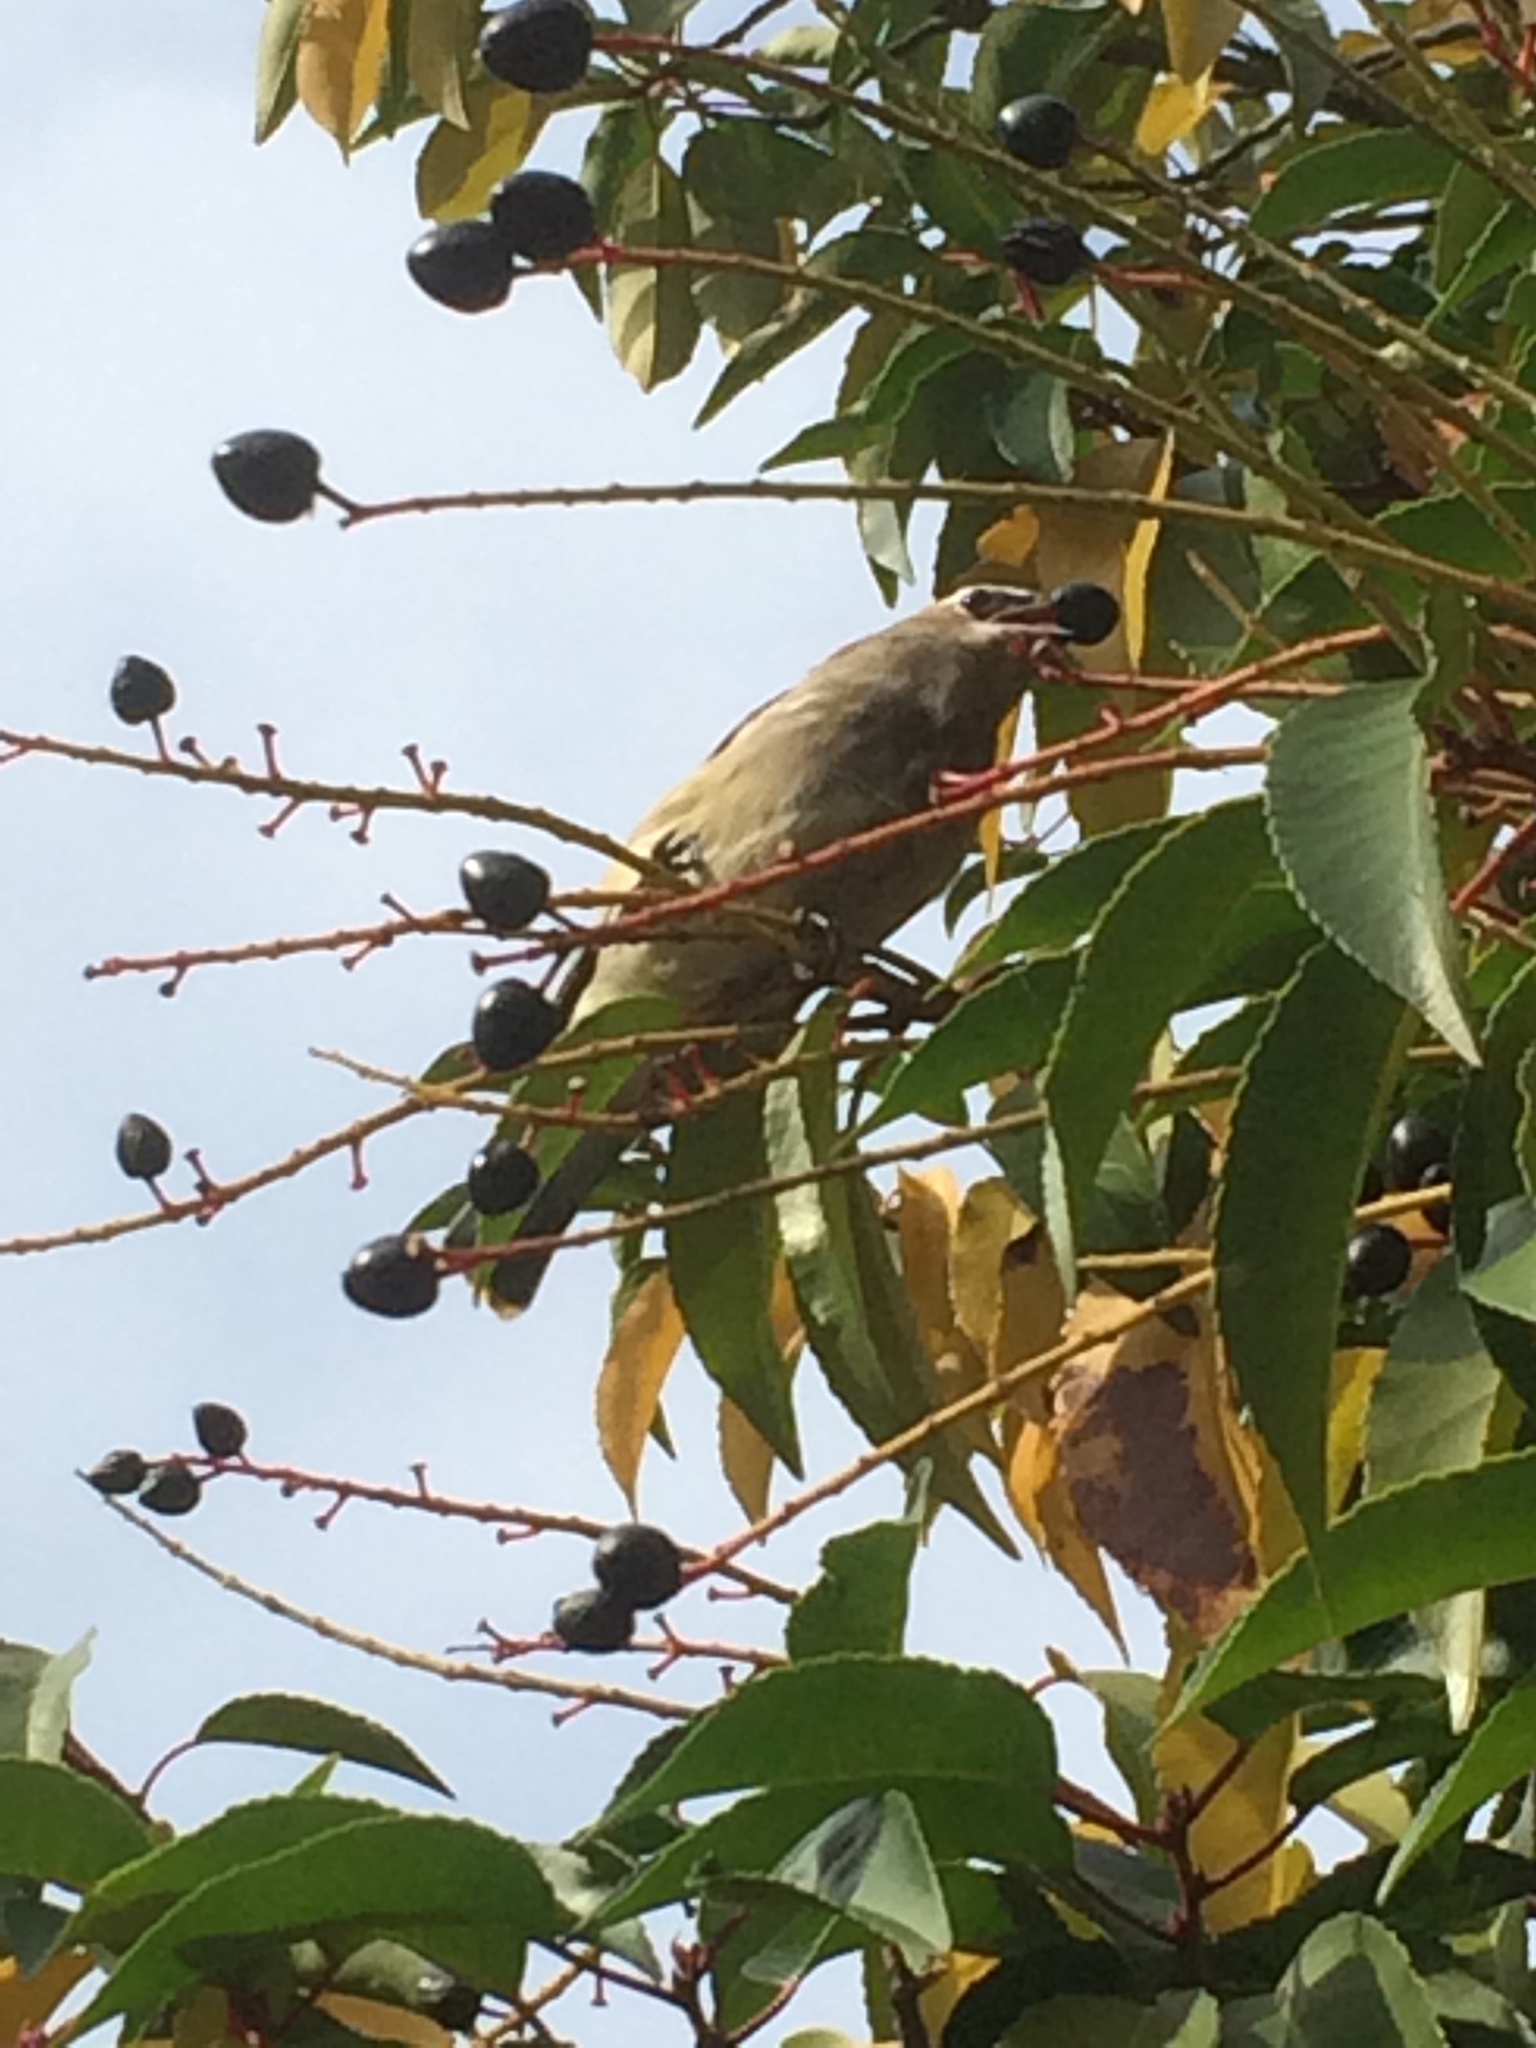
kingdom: Animalia
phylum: Chordata
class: Aves
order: Passeriformes
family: Bombycillidae
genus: Bombycilla
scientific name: Bombycilla cedrorum
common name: Cedar waxwing
